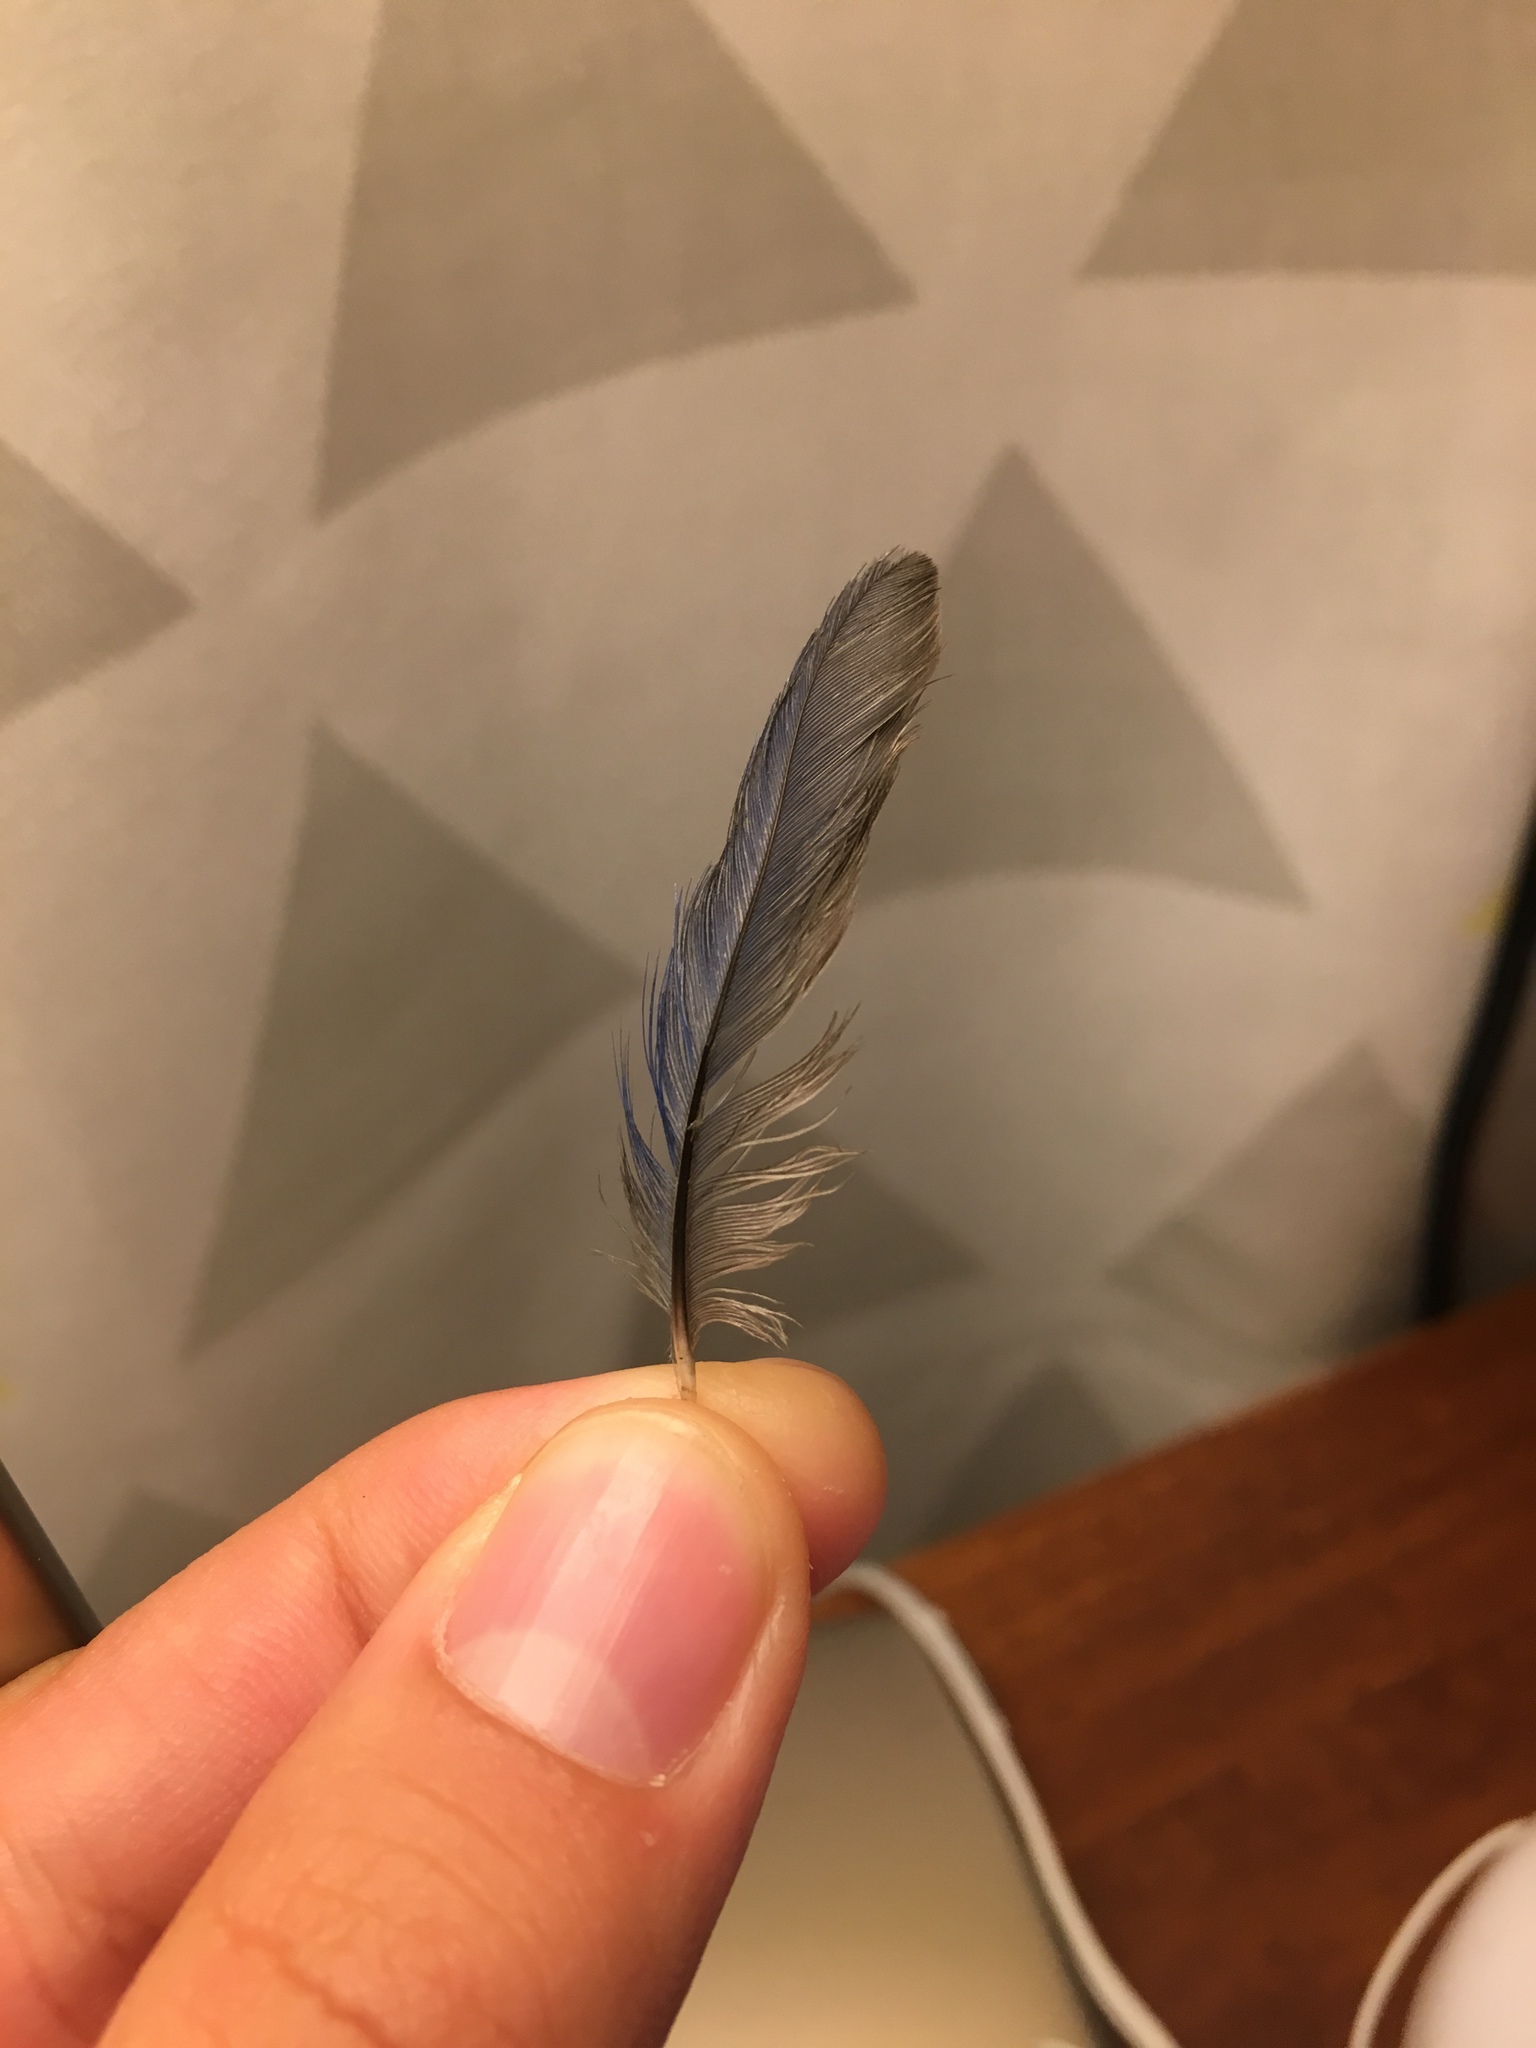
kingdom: Animalia
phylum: Chordata
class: Aves
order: Passeriformes
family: Turdidae
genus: Sialia
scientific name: Sialia sialis
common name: Eastern bluebird
